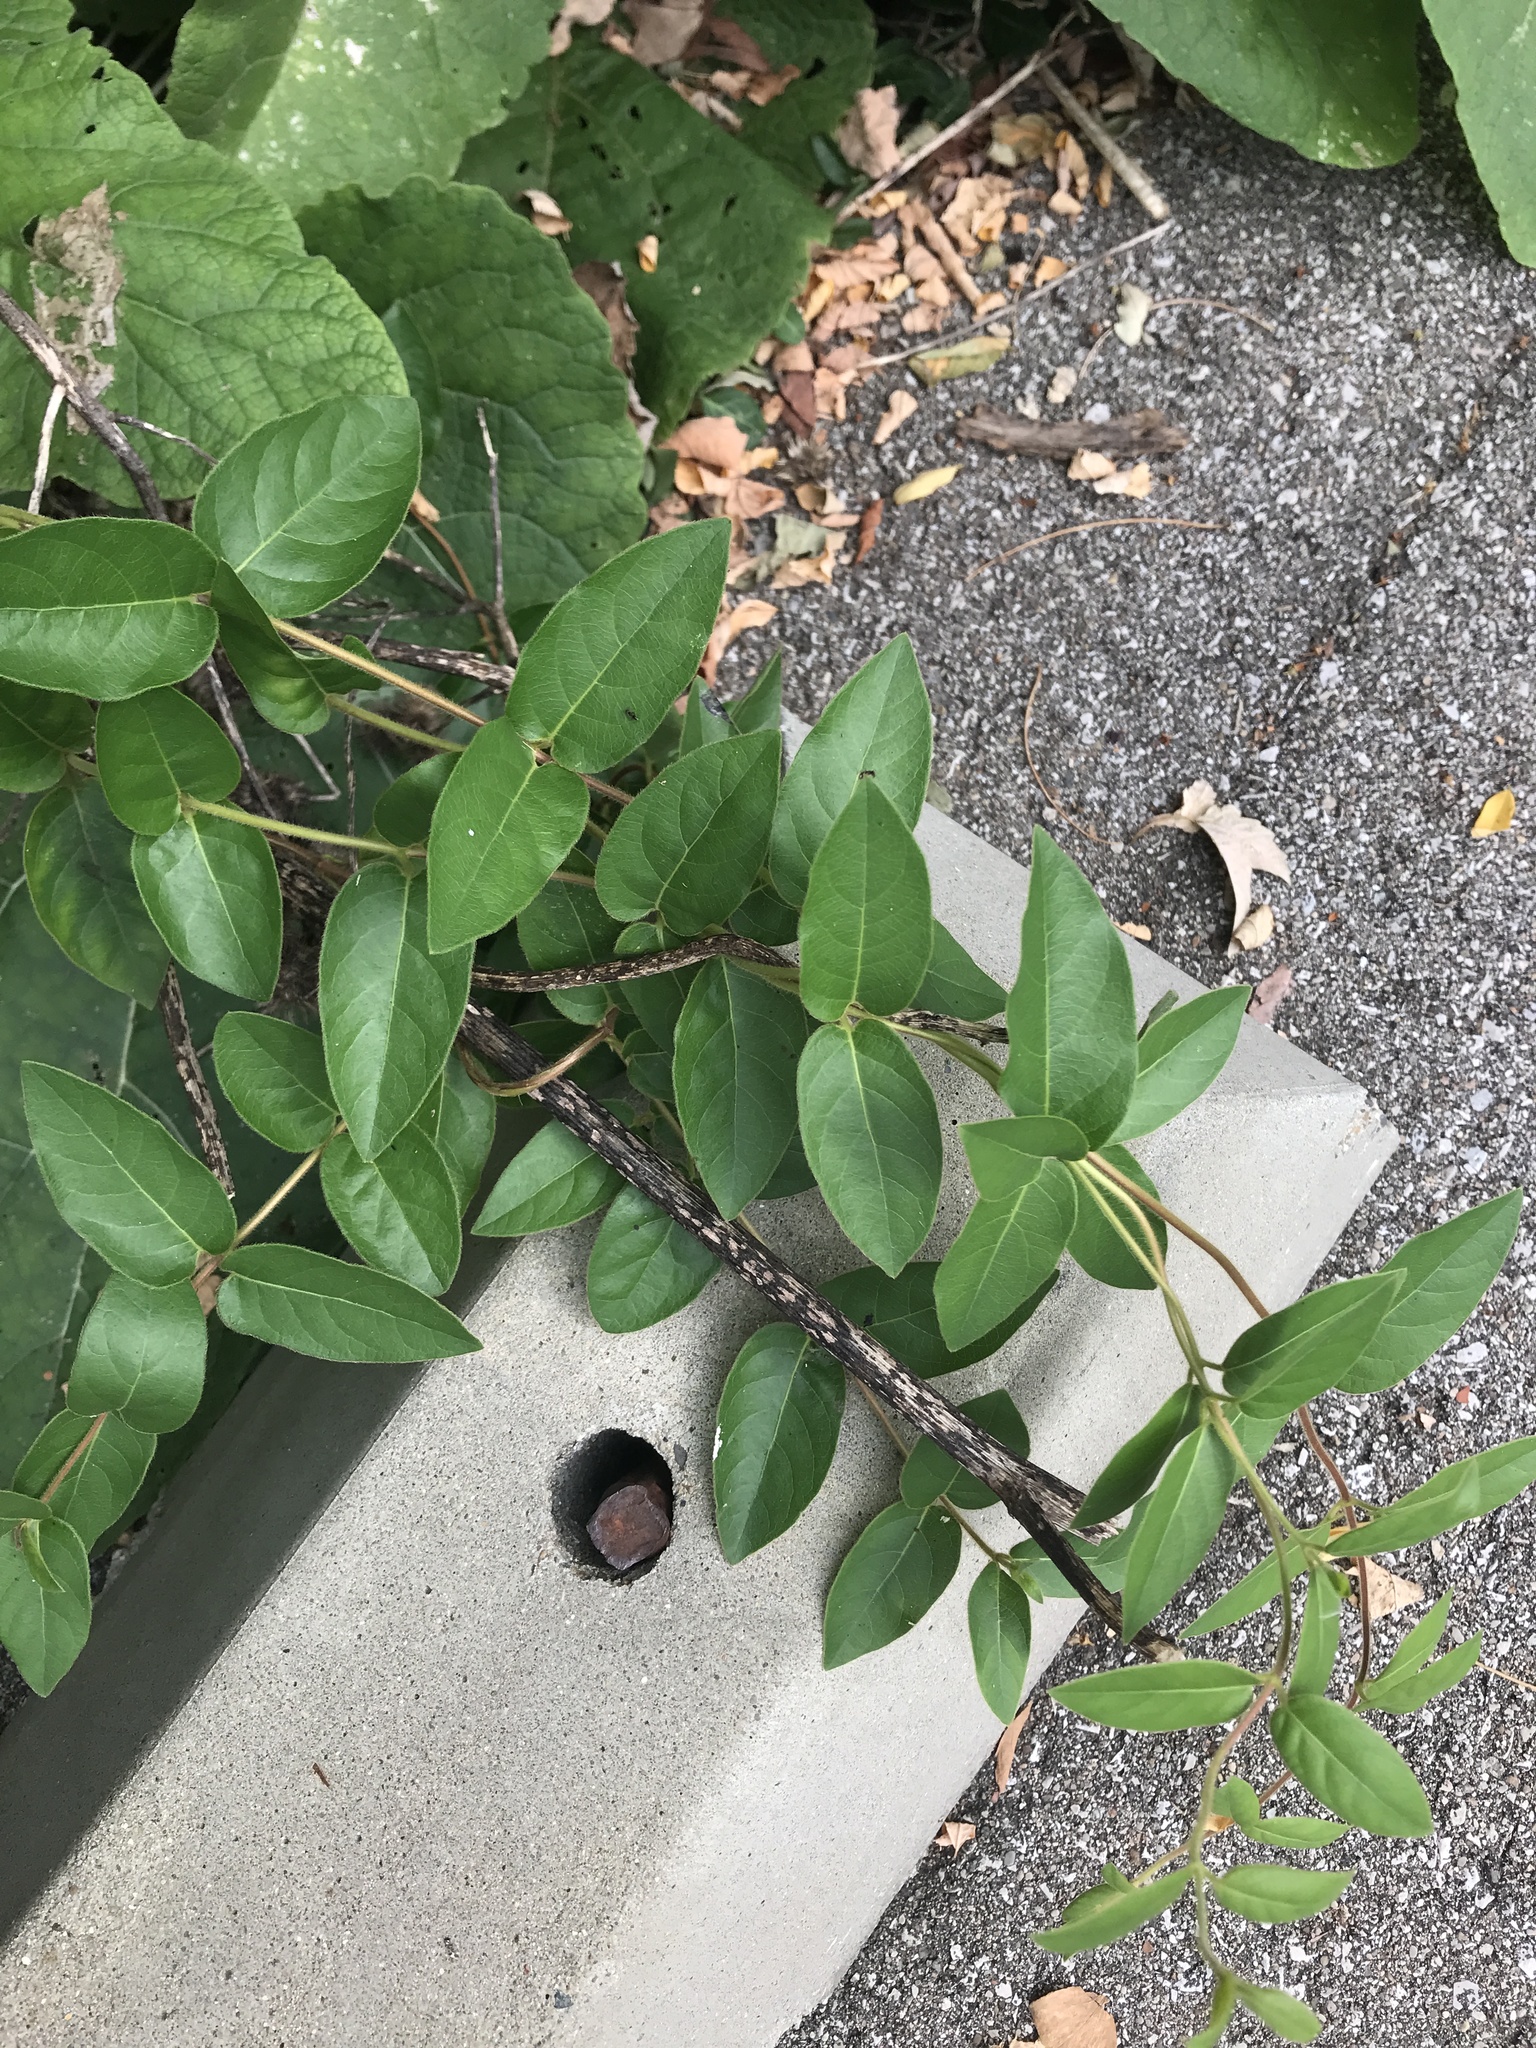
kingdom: Plantae
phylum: Tracheophyta
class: Magnoliopsida
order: Dipsacales
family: Caprifoliaceae
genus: Lonicera
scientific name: Lonicera japonica
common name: Japanese honeysuckle
